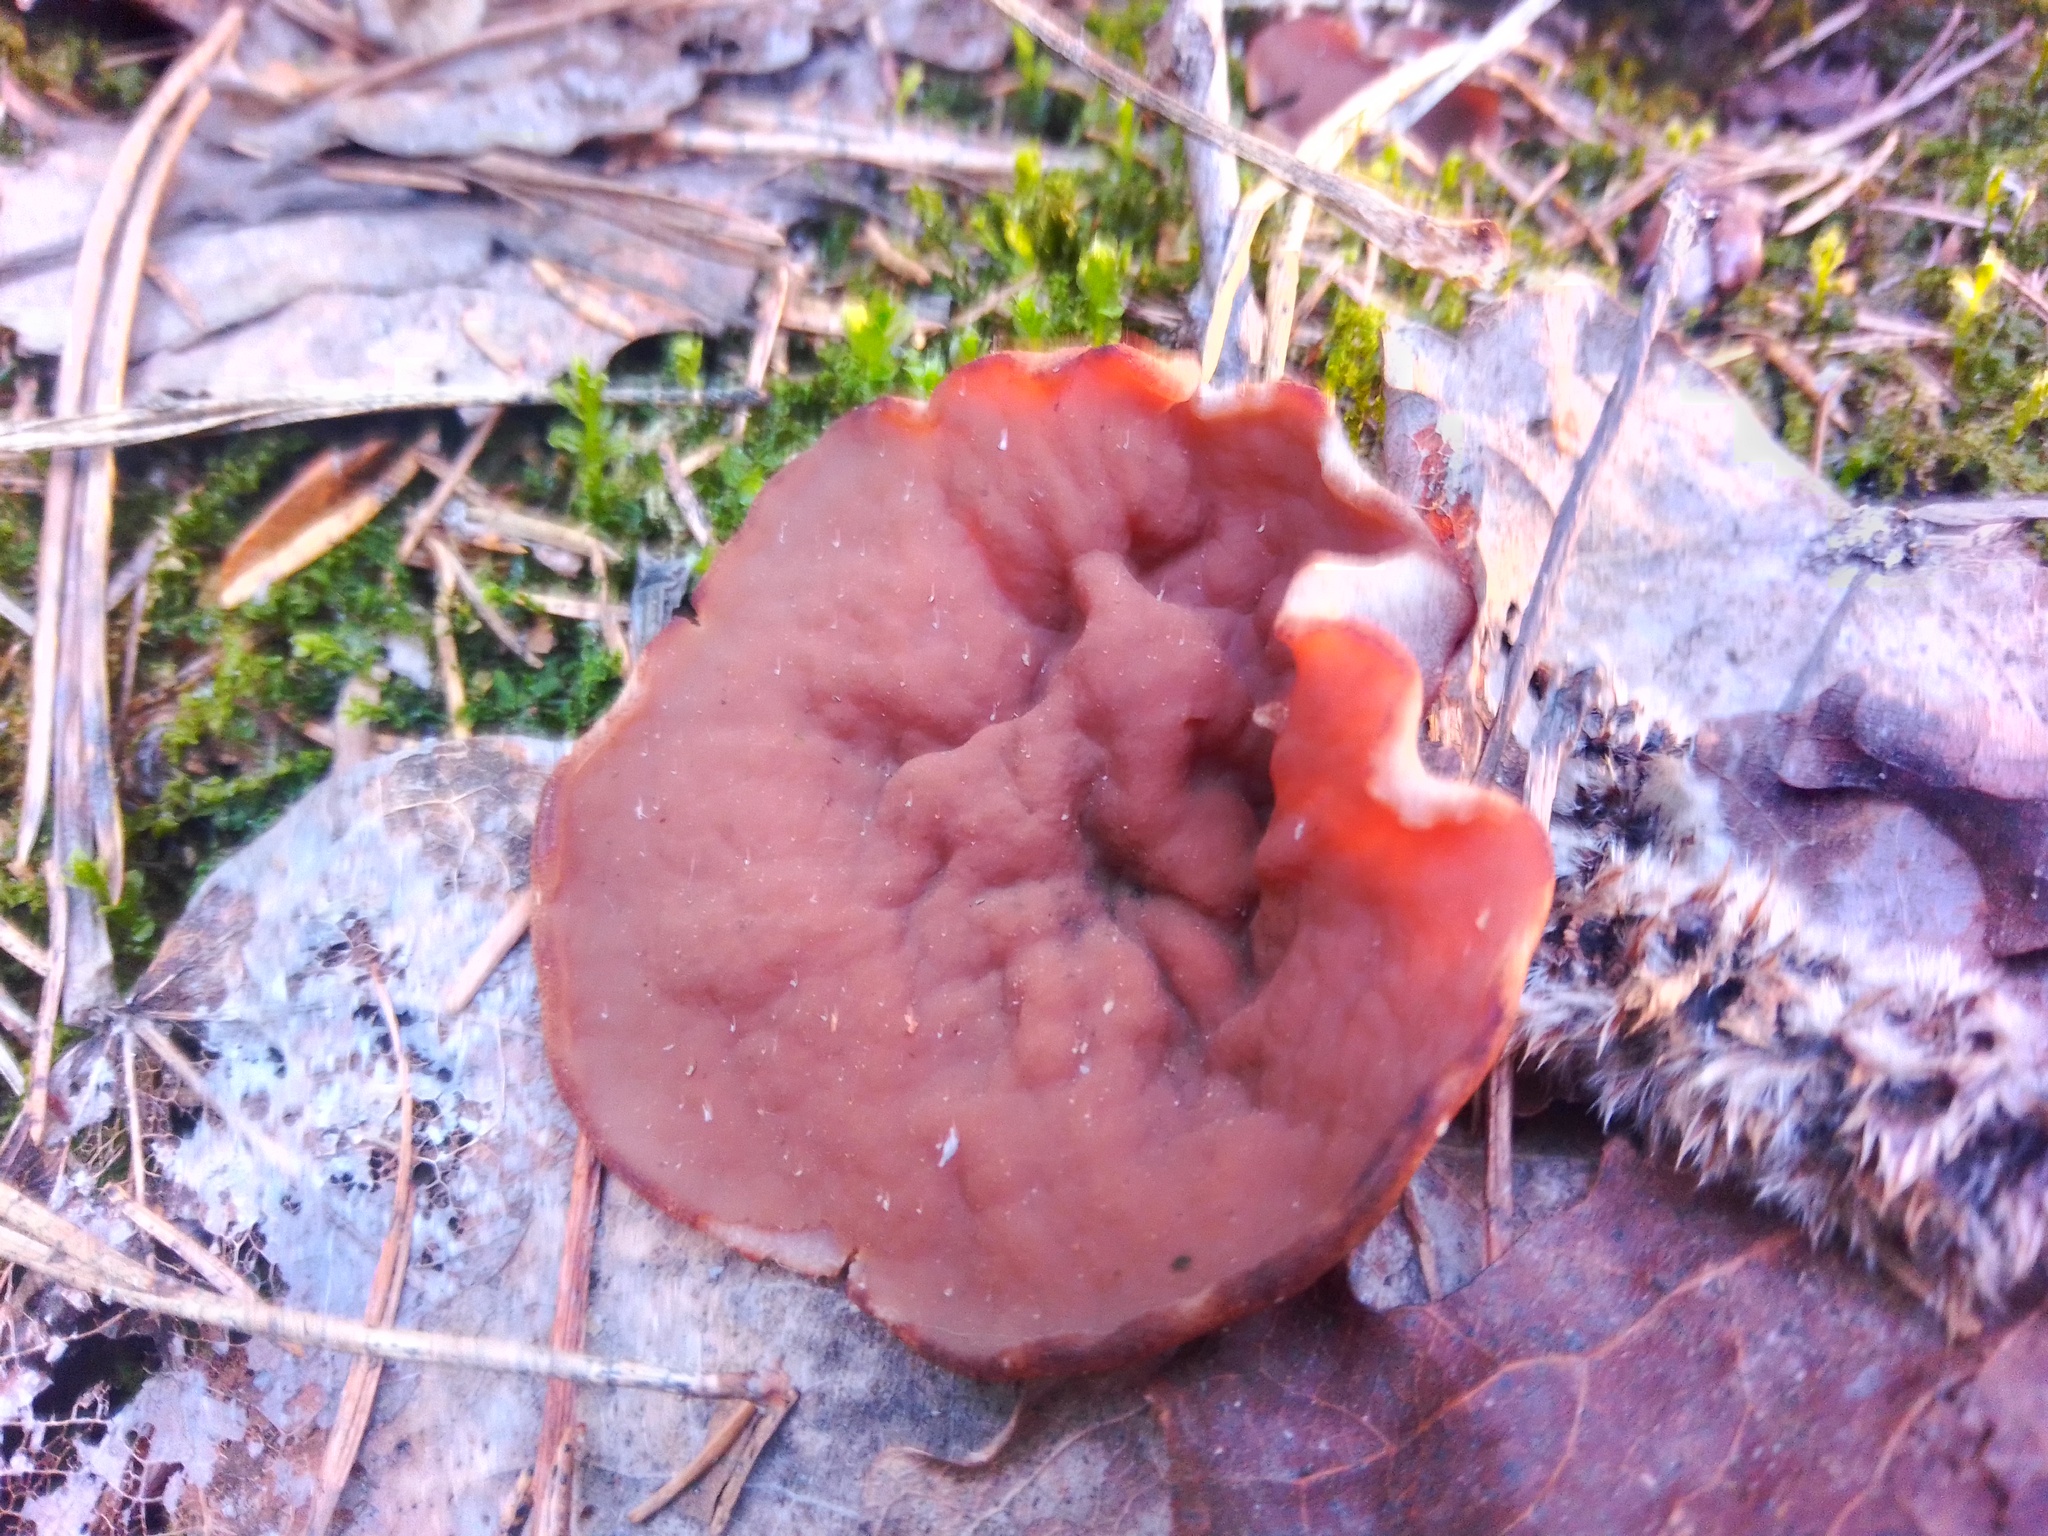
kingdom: Fungi
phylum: Ascomycota
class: Pezizomycetes
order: Pezizales
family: Discinaceae
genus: Discina
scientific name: Discina
